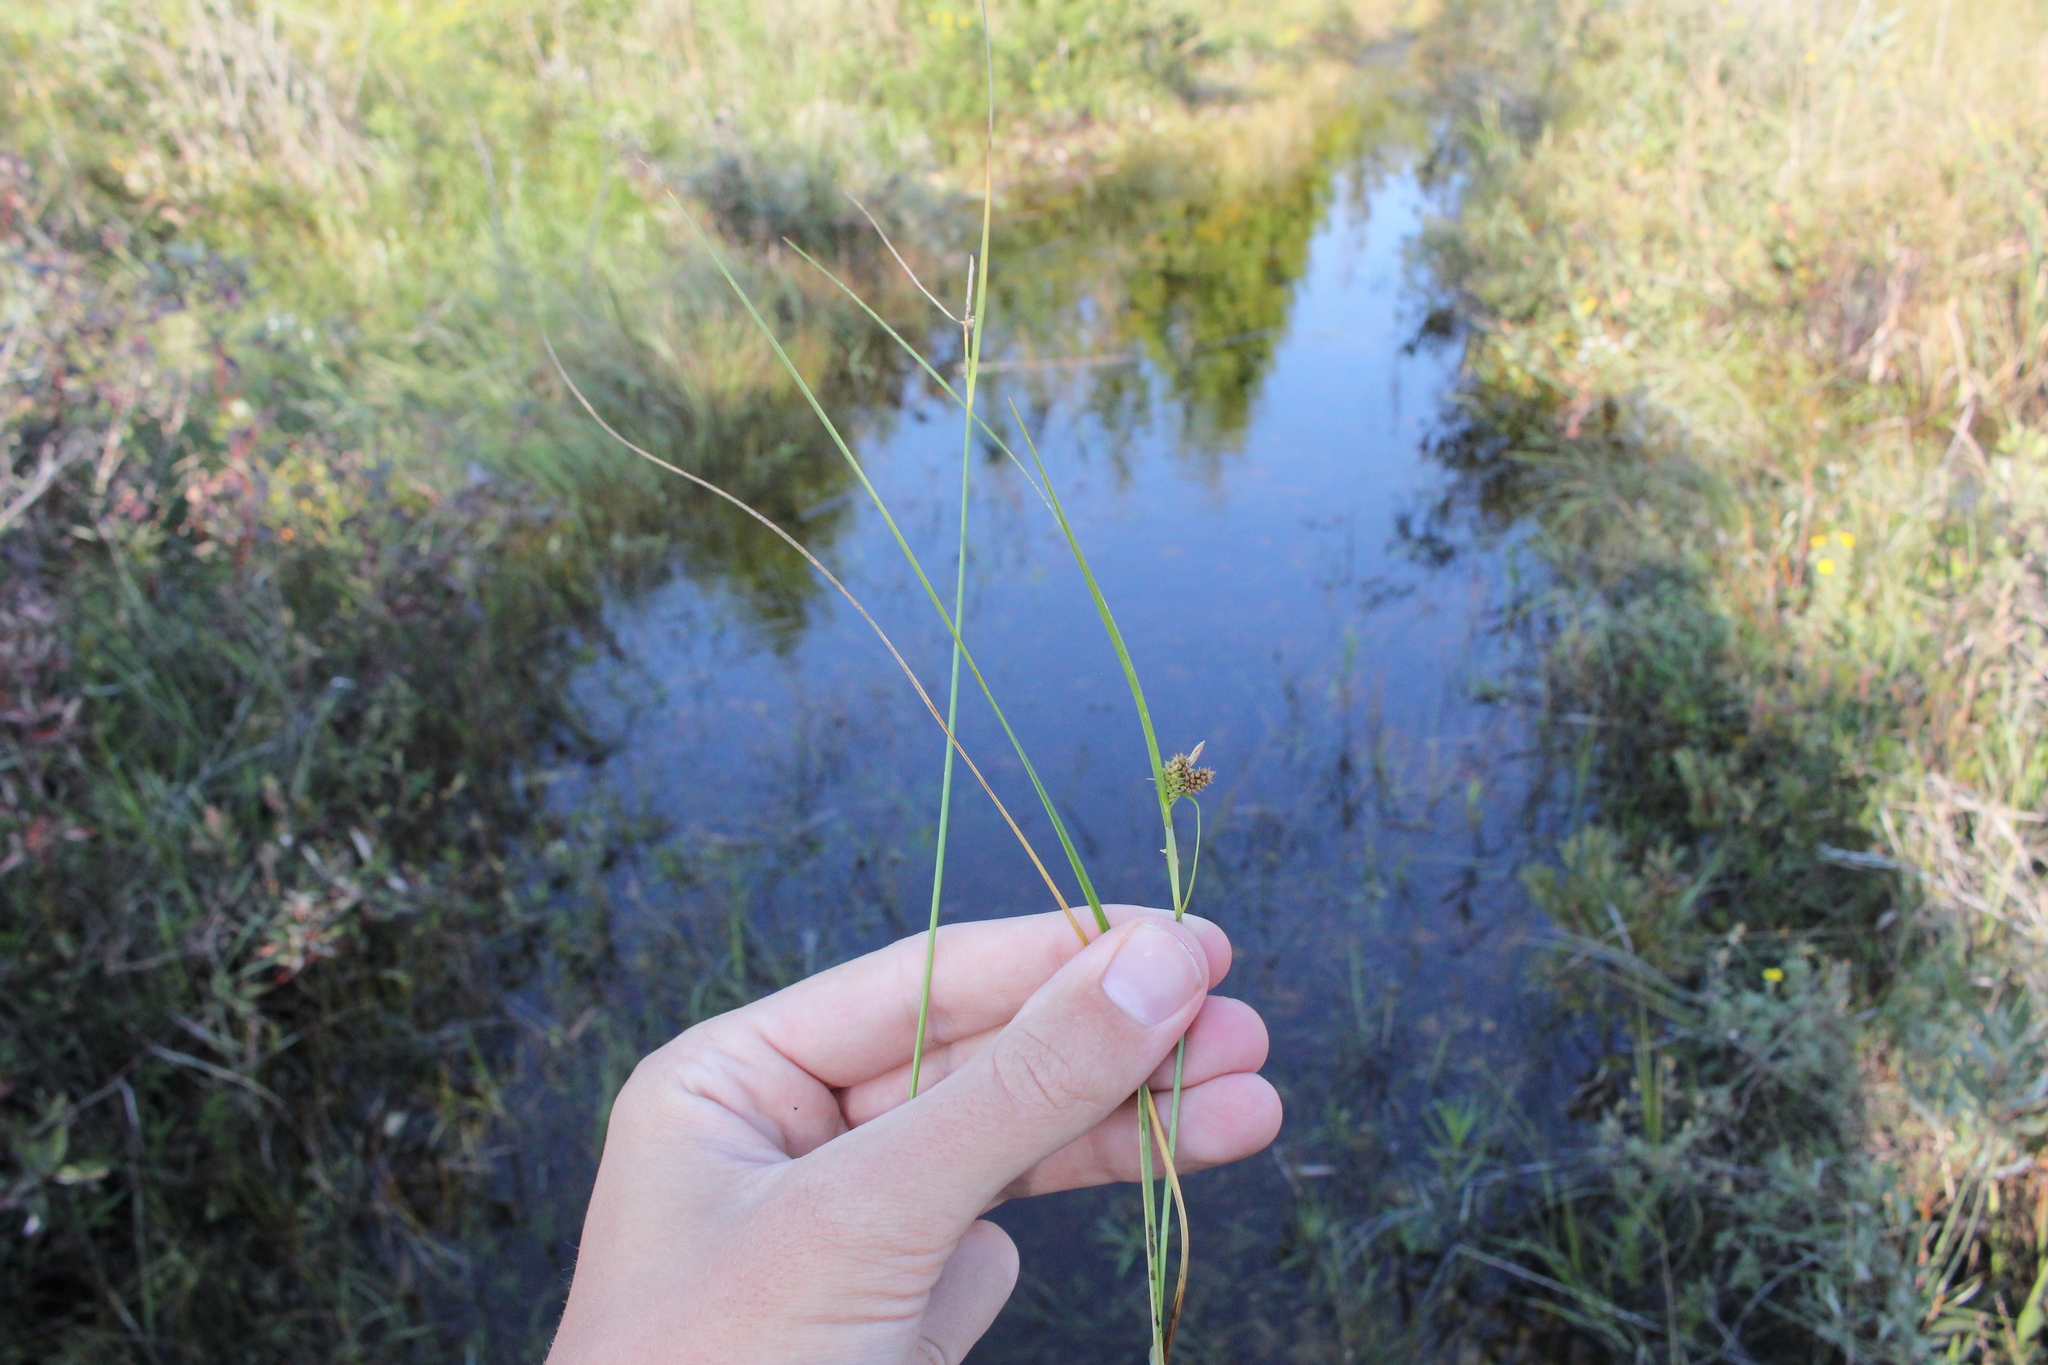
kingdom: Plantae
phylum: Tracheophyta
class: Liliopsida
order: Poales
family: Cyperaceae
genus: Carex
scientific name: Carex
